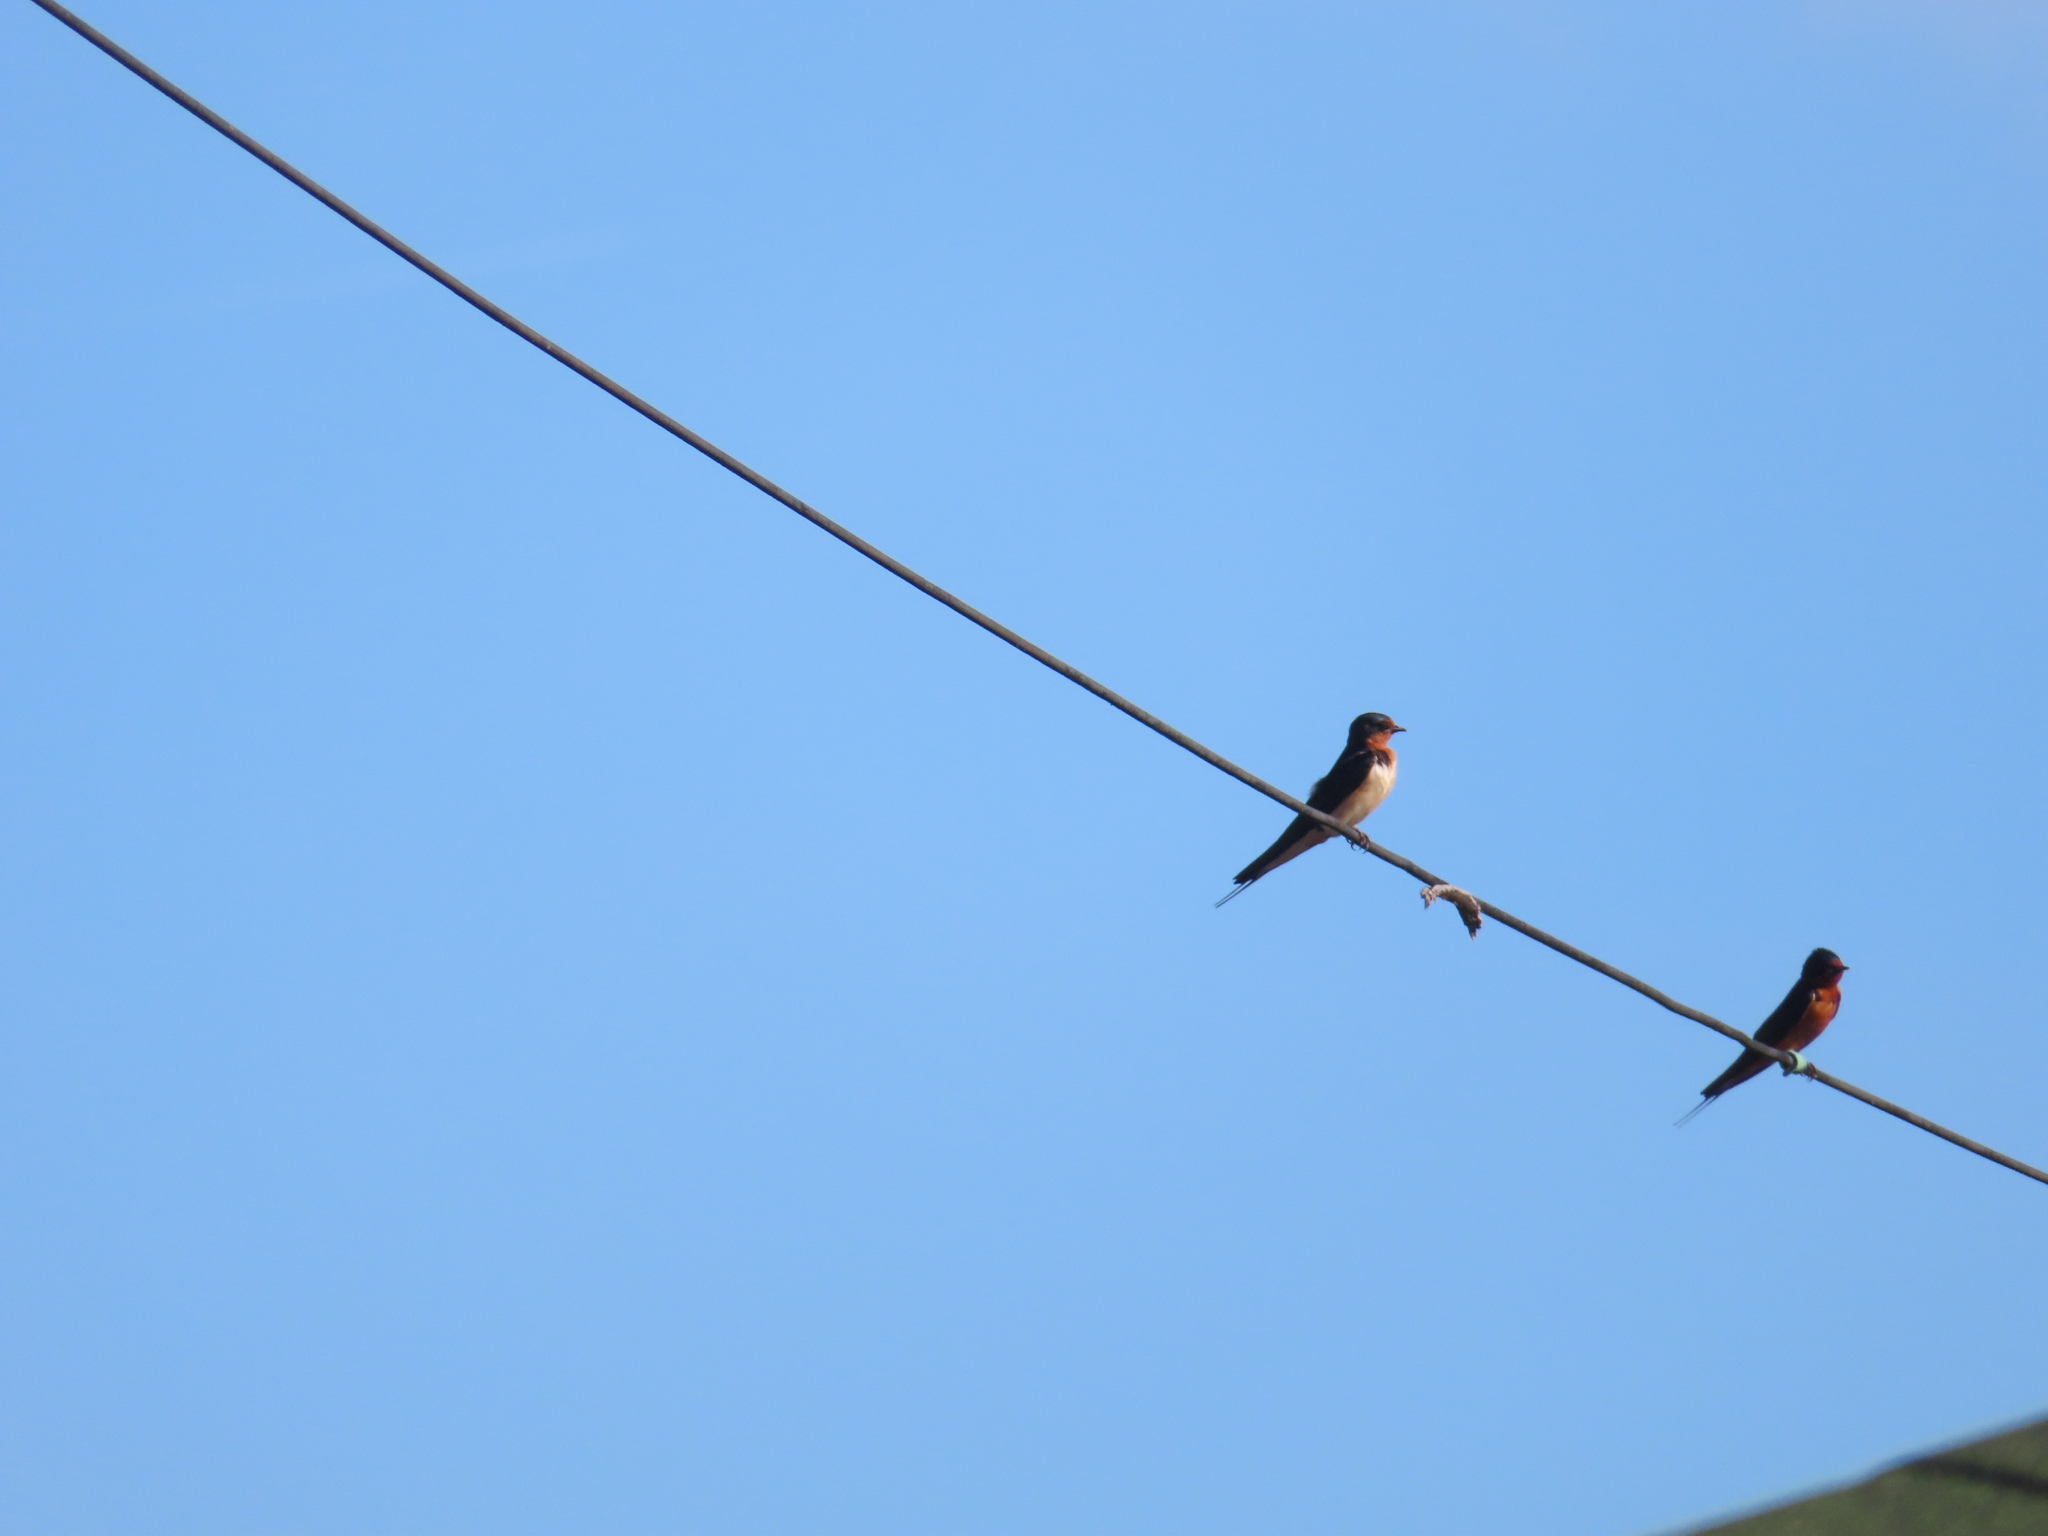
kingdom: Animalia
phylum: Chordata
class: Aves
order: Passeriformes
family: Hirundinidae
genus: Hirundo
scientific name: Hirundo rustica
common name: Barn swallow
